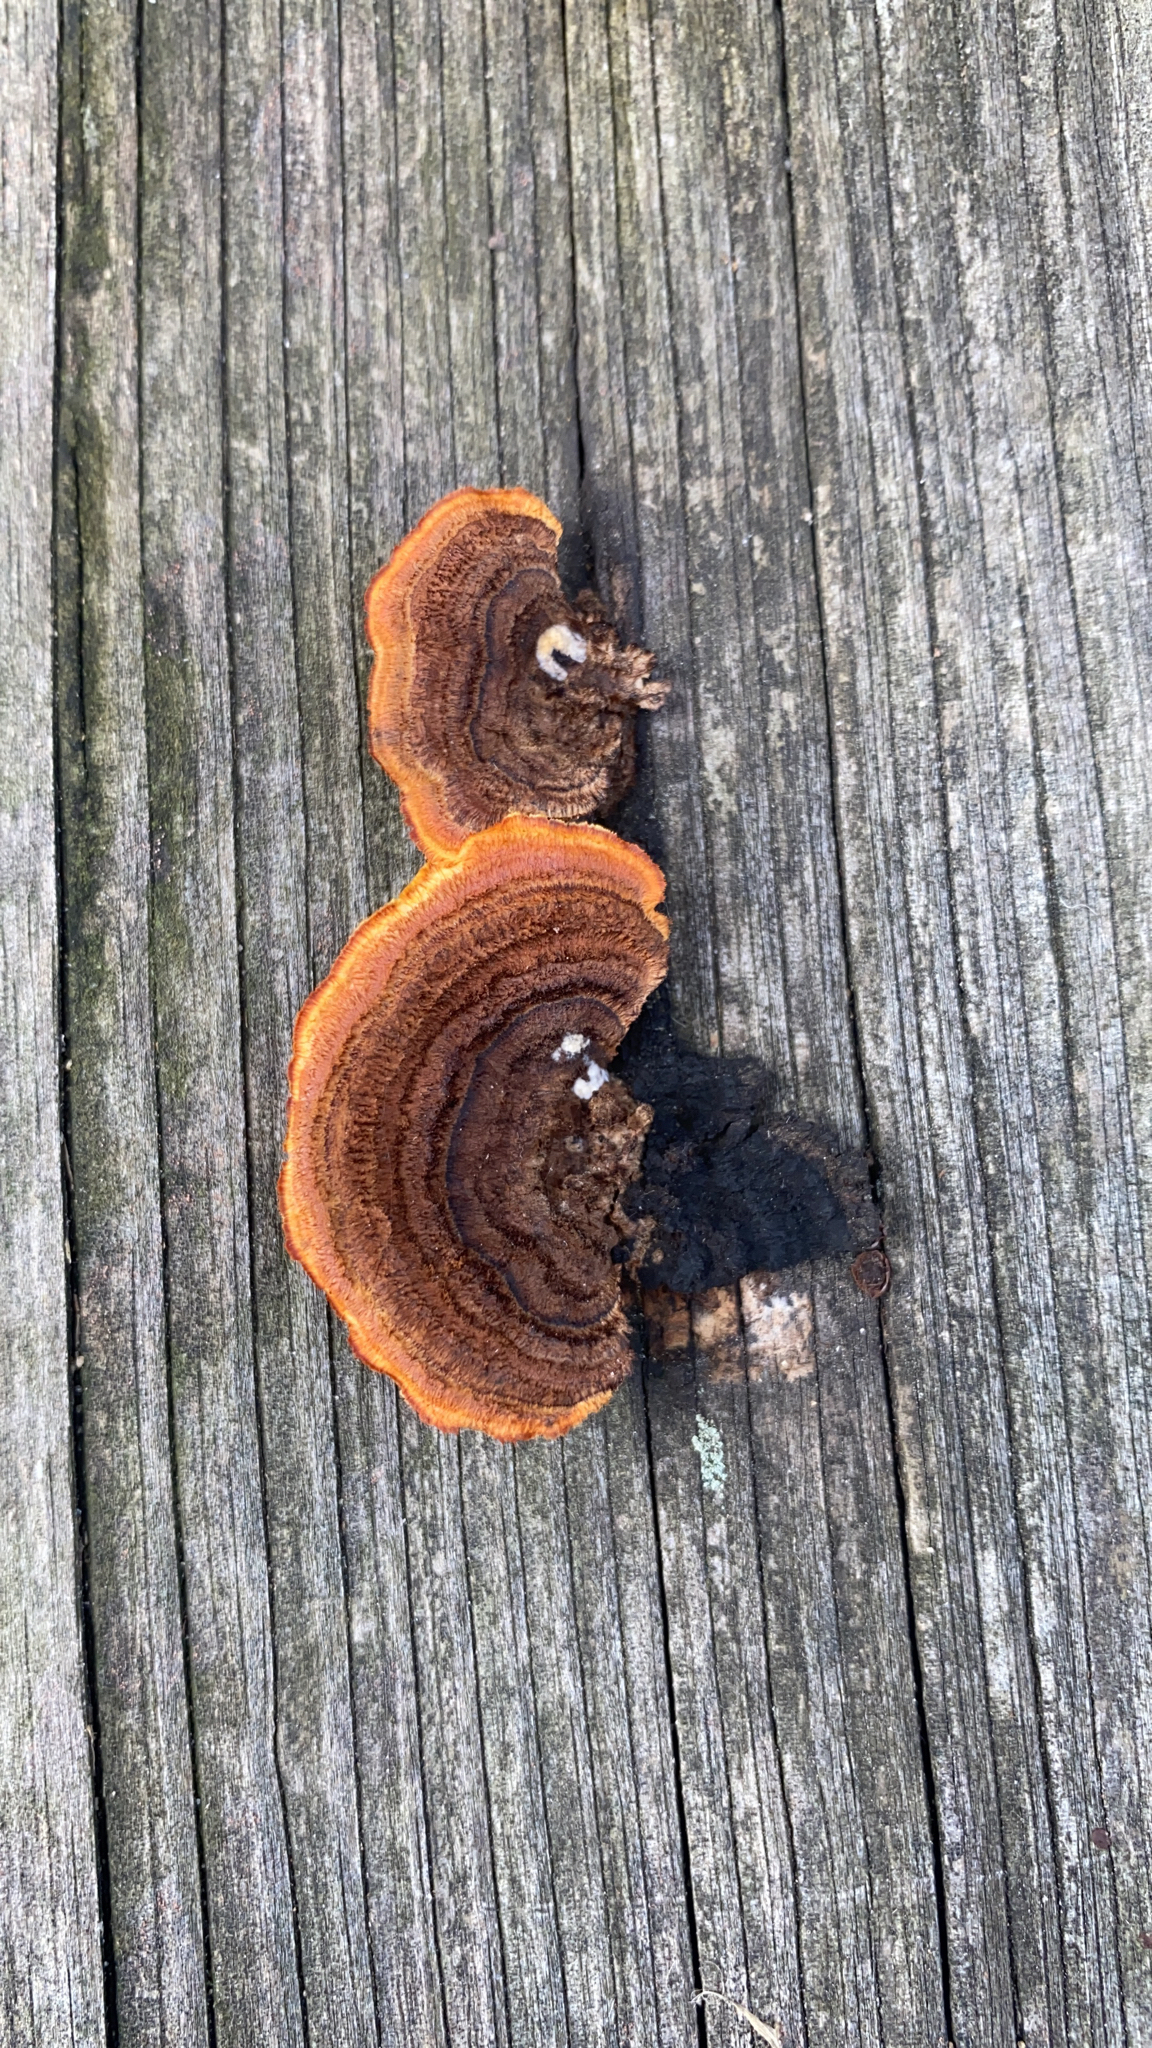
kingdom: Fungi
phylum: Basidiomycota
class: Agaricomycetes
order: Gloeophyllales
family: Gloeophyllaceae
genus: Gloeophyllum
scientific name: Gloeophyllum sepiarium
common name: Conifer mazegill
